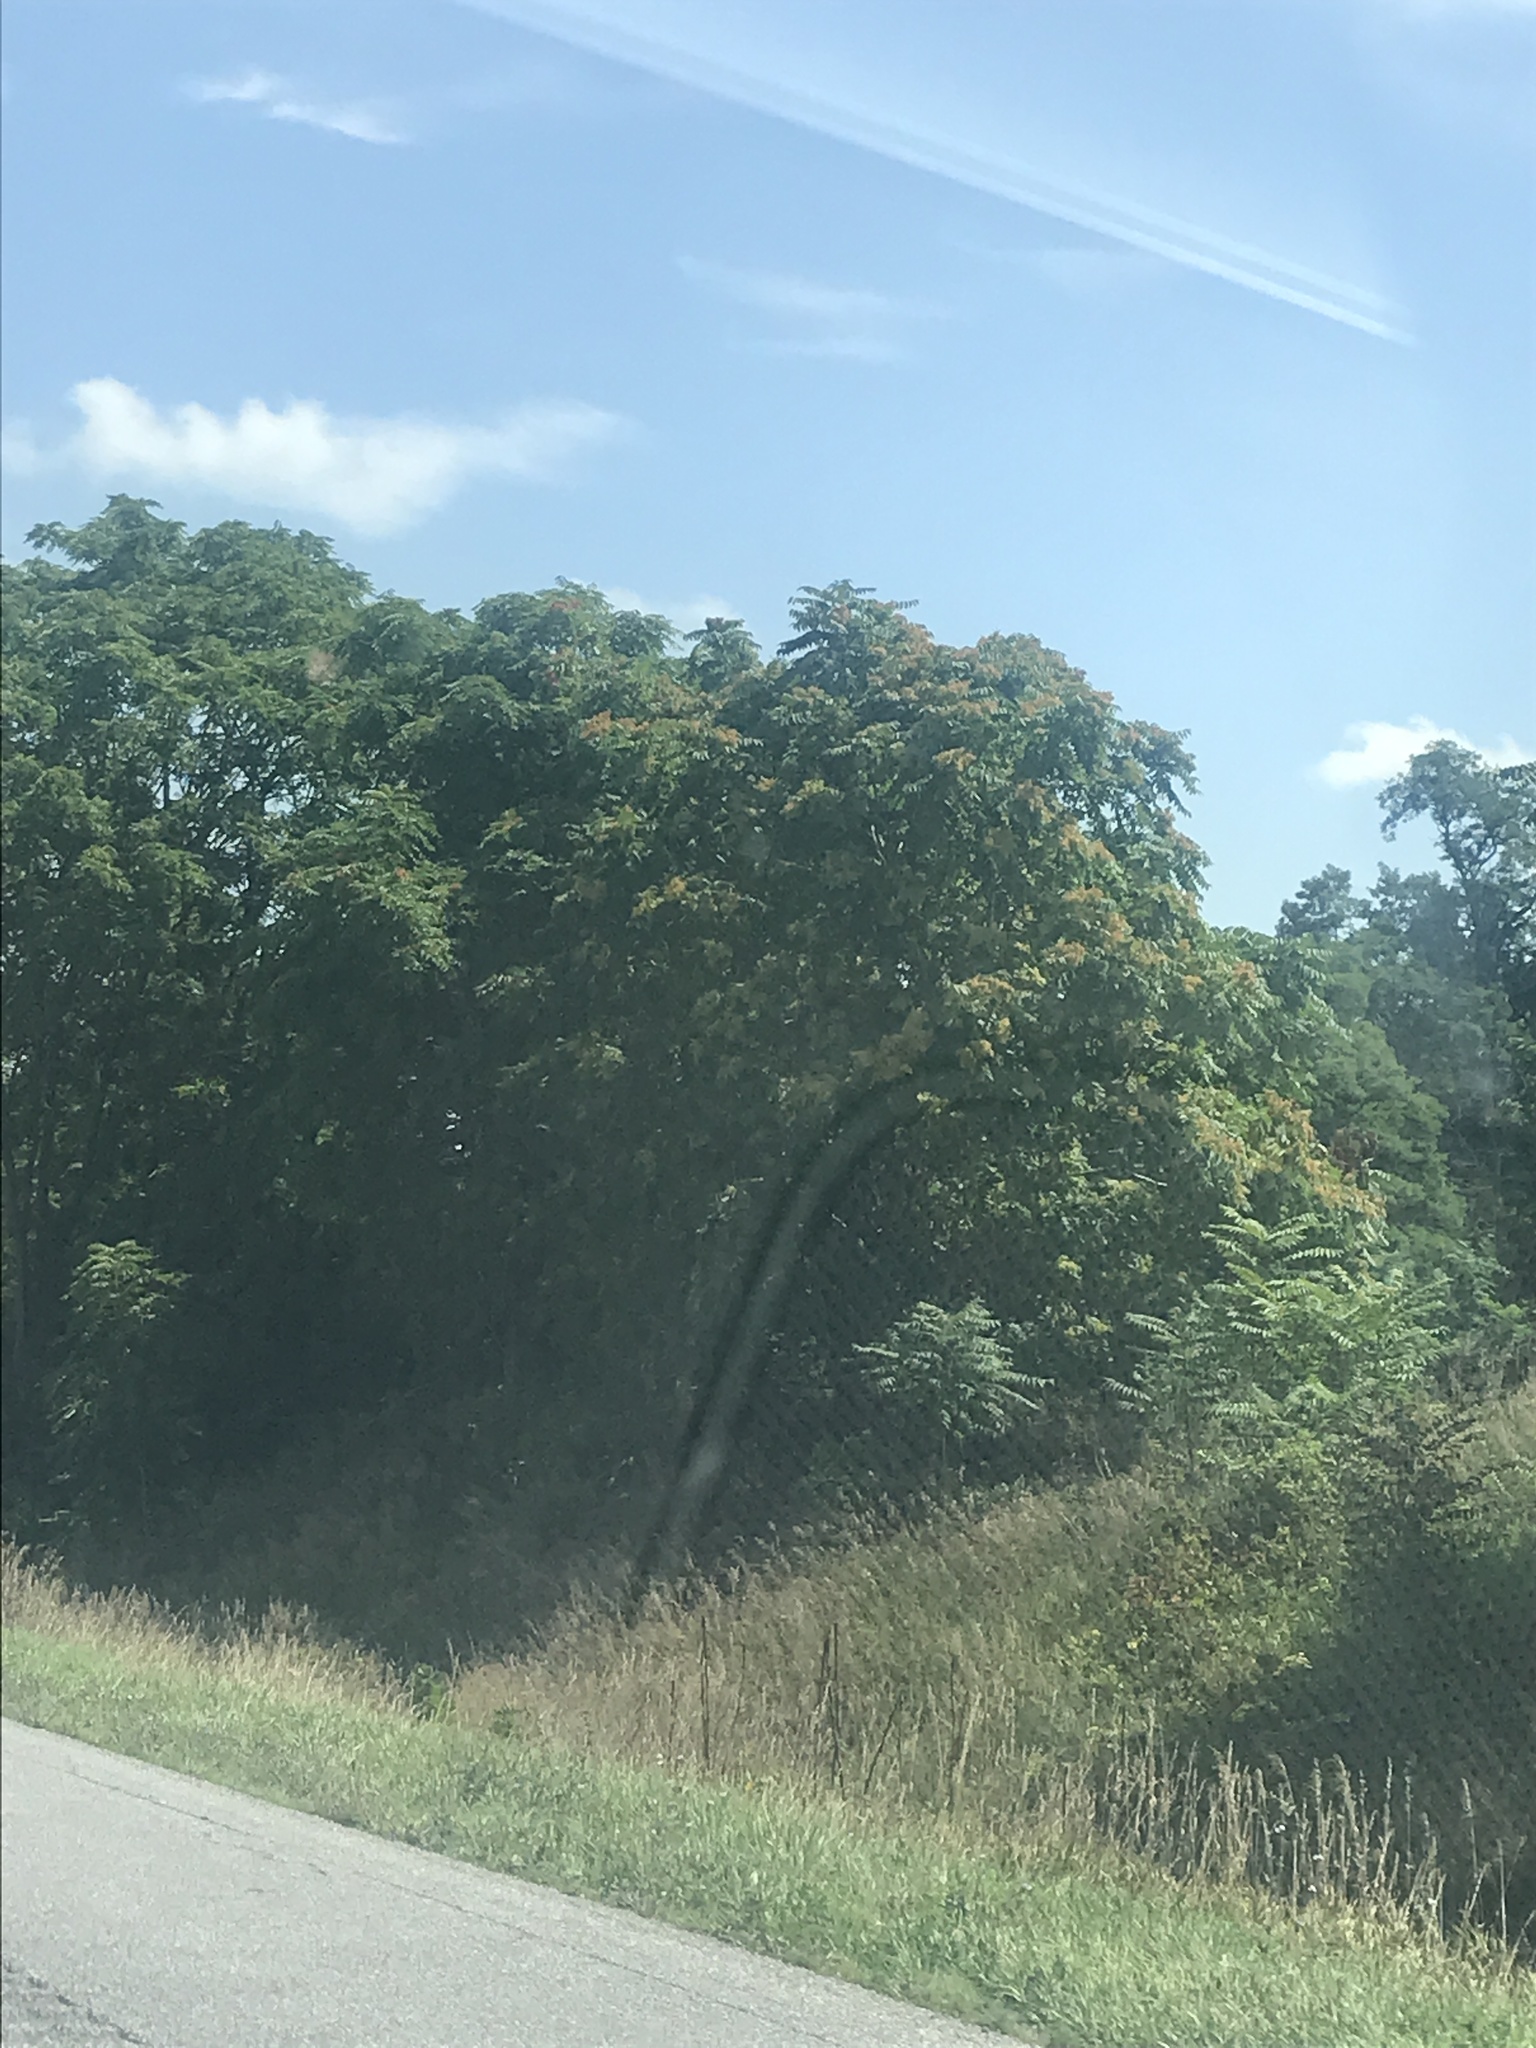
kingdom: Plantae
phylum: Tracheophyta
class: Magnoliopsida
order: Sapindales
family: Simaroubaceae
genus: Ailanthus
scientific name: Ailanthus altissima
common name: Tree-of-heaven
